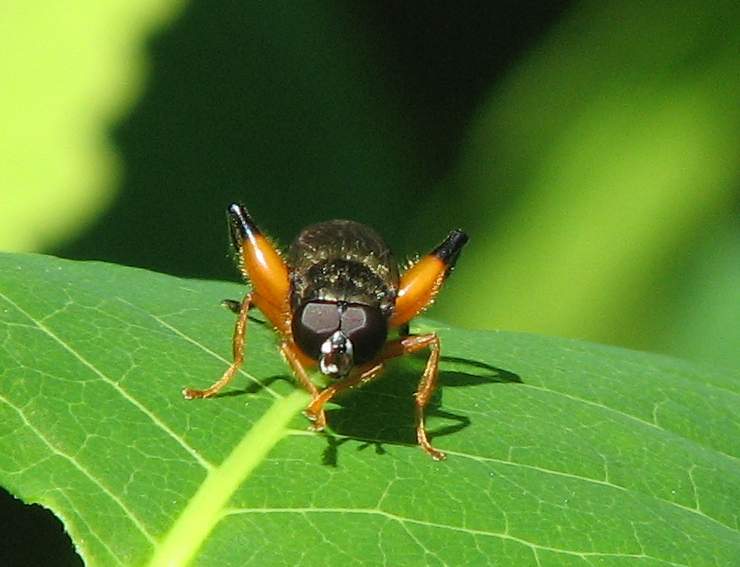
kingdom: Animalia
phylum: Arthropoda
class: Insecta
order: Diptera
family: Syrphidae
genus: Chalcosyrphus
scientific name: Chalcosyrphus curvaria
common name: Yellow-haltered forest fly
